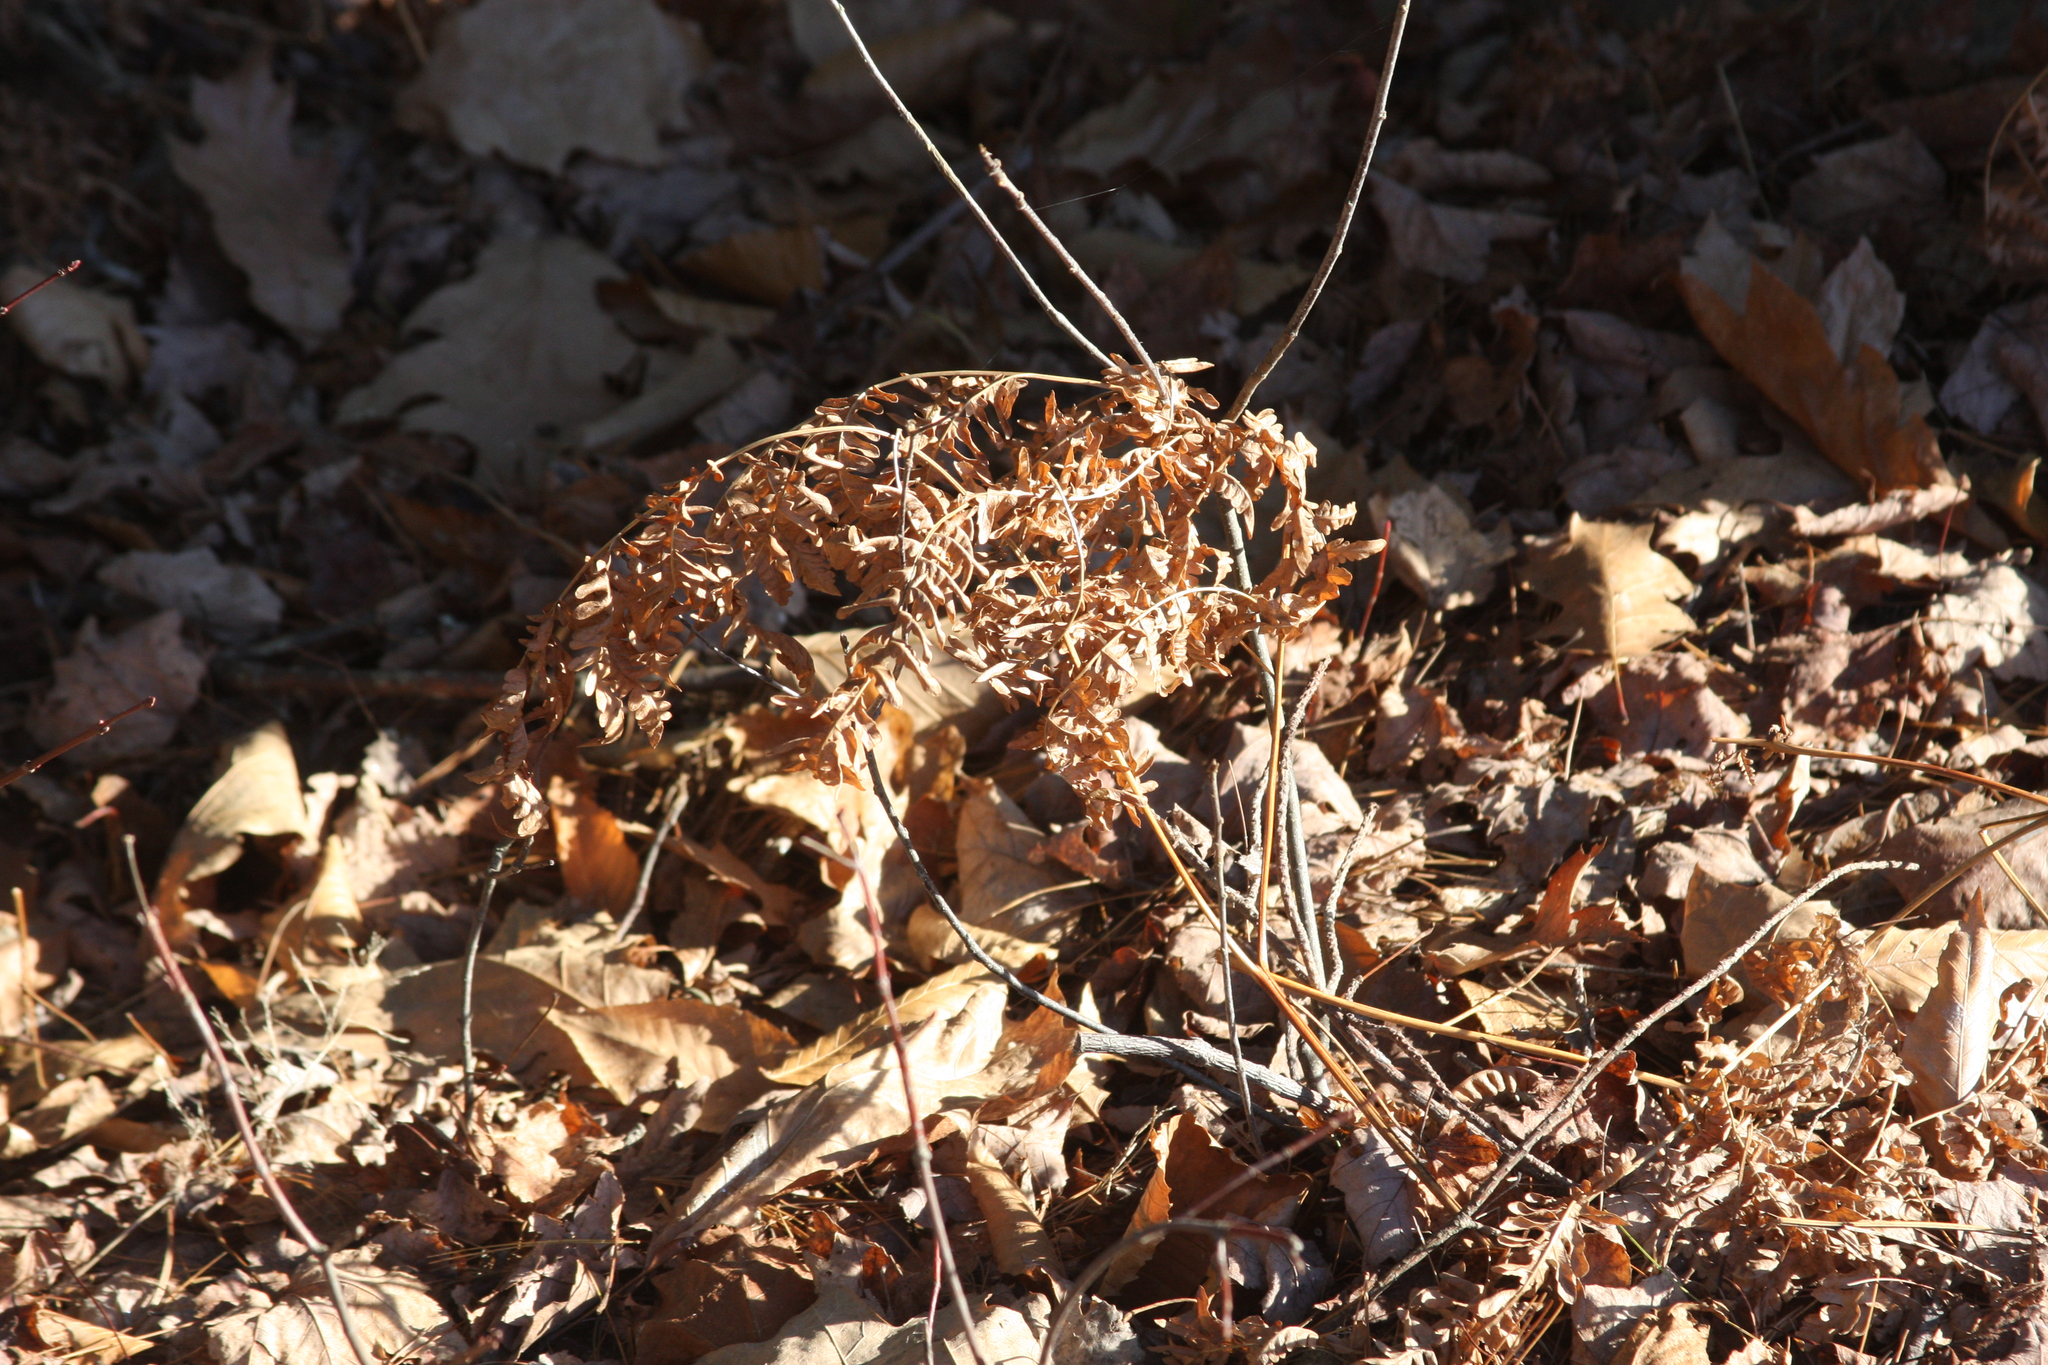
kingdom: Plantae
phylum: Tracheophyta
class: Polypodiopsida
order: Polypodiales
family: Dennstaedtiaceae
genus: Pteridium
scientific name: Pteridium aquilinum
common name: Bracken
